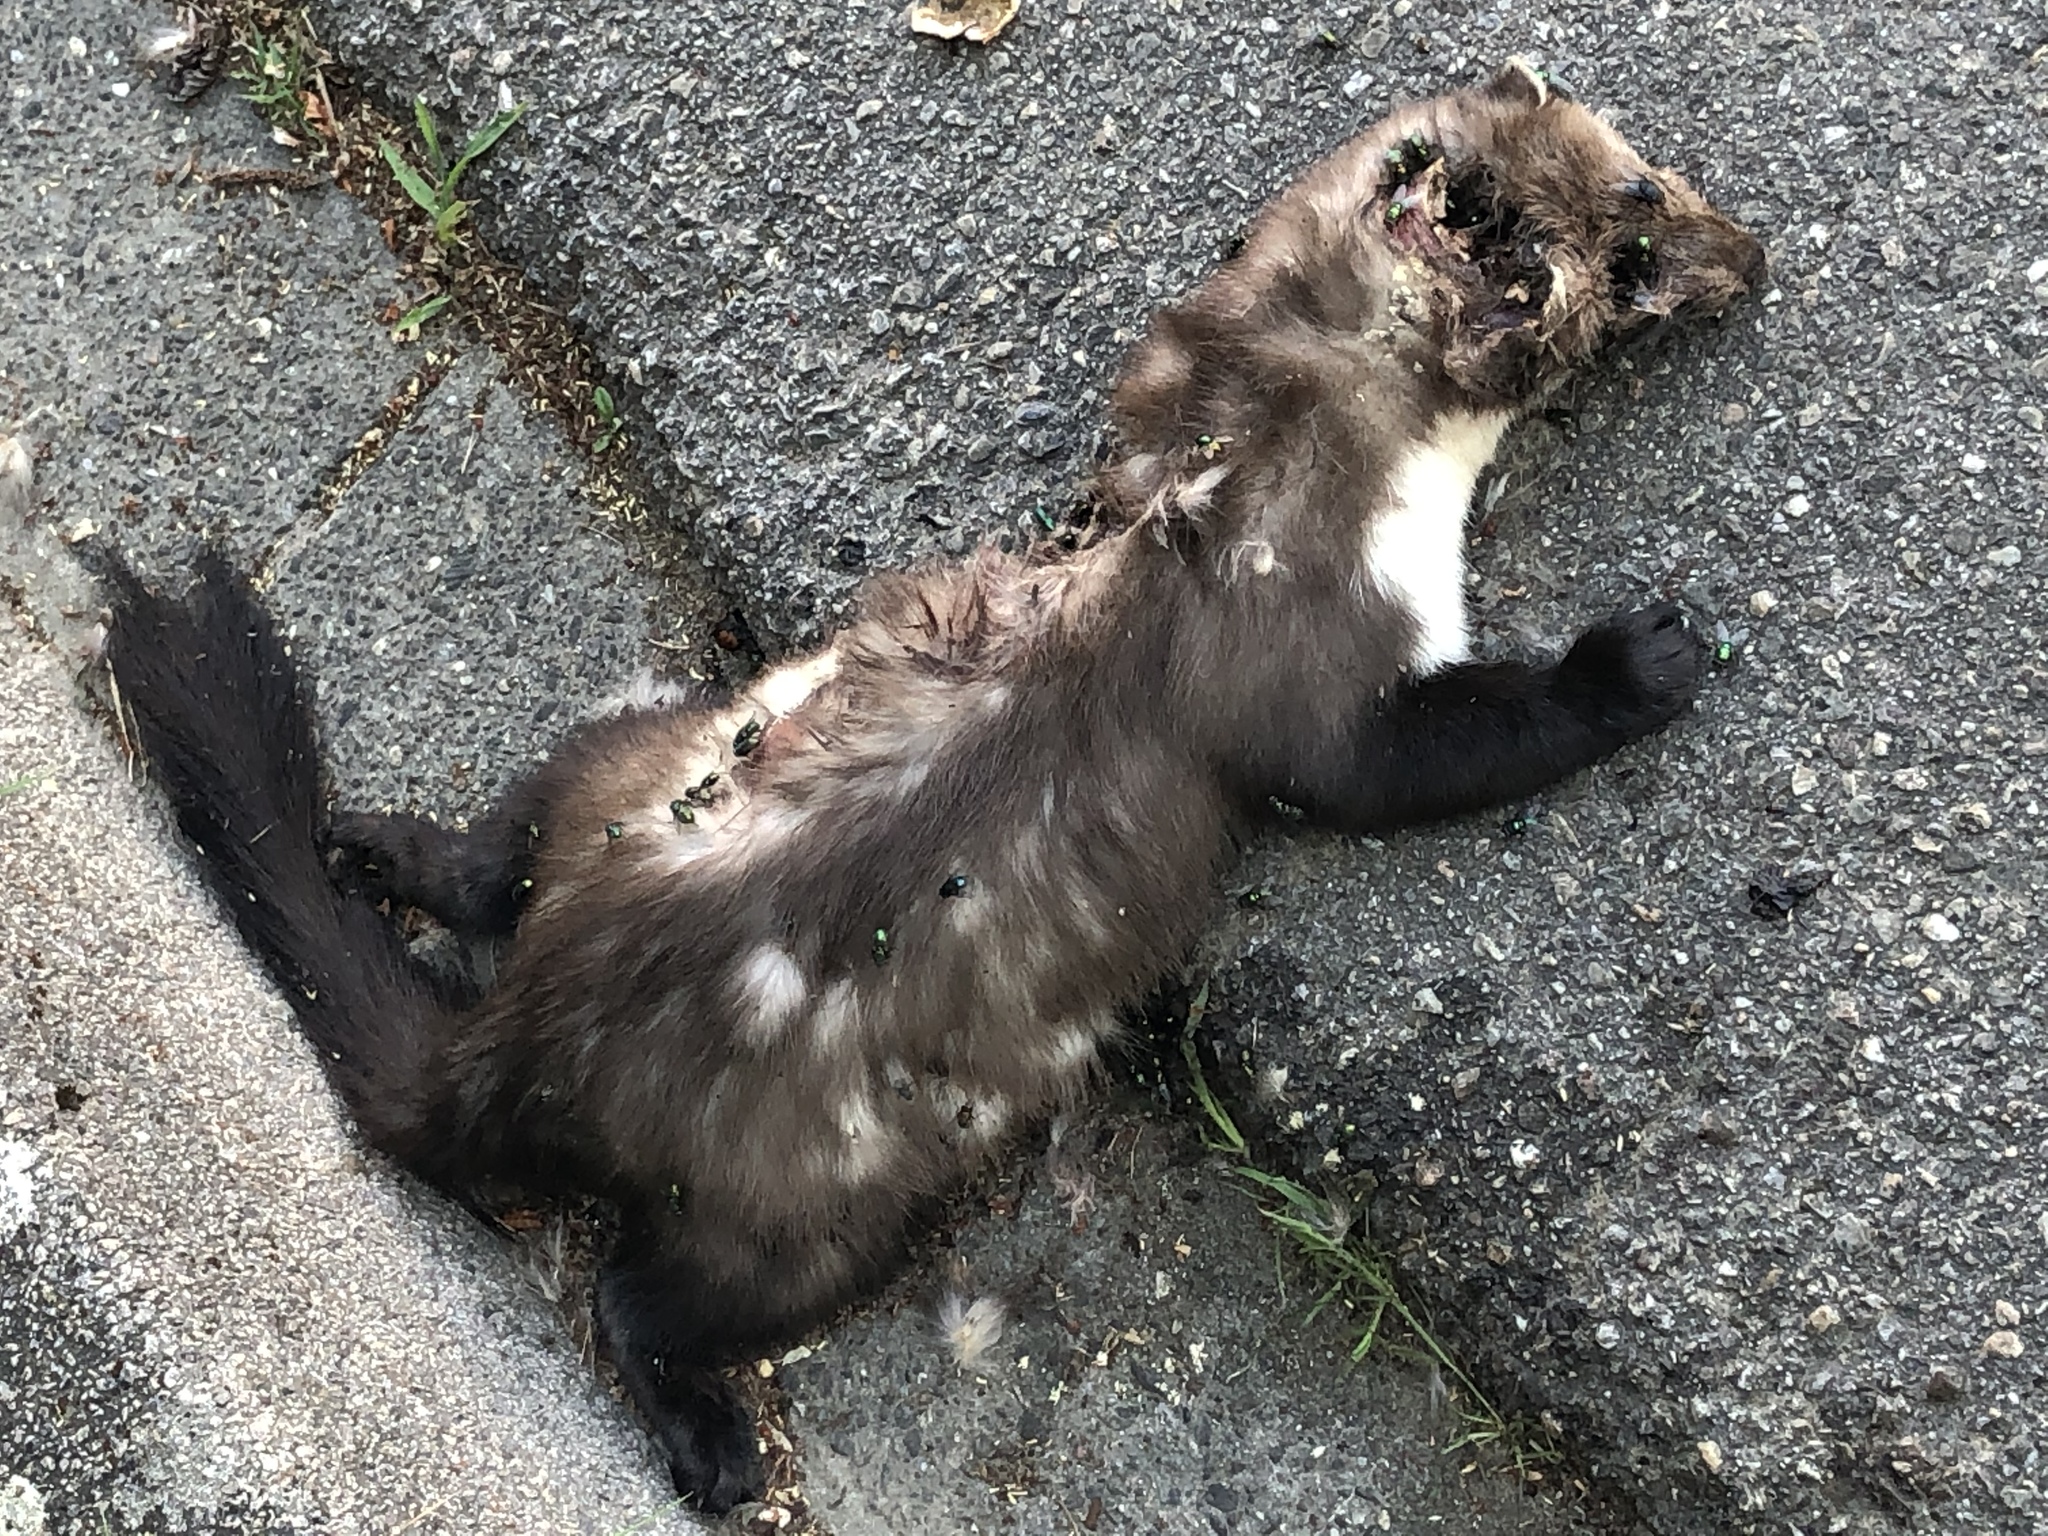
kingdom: Animalia
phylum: Chordata
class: Mammalia
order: Carnivora
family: Mustelidae
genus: Martes
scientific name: Martes foina
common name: Beech marten
